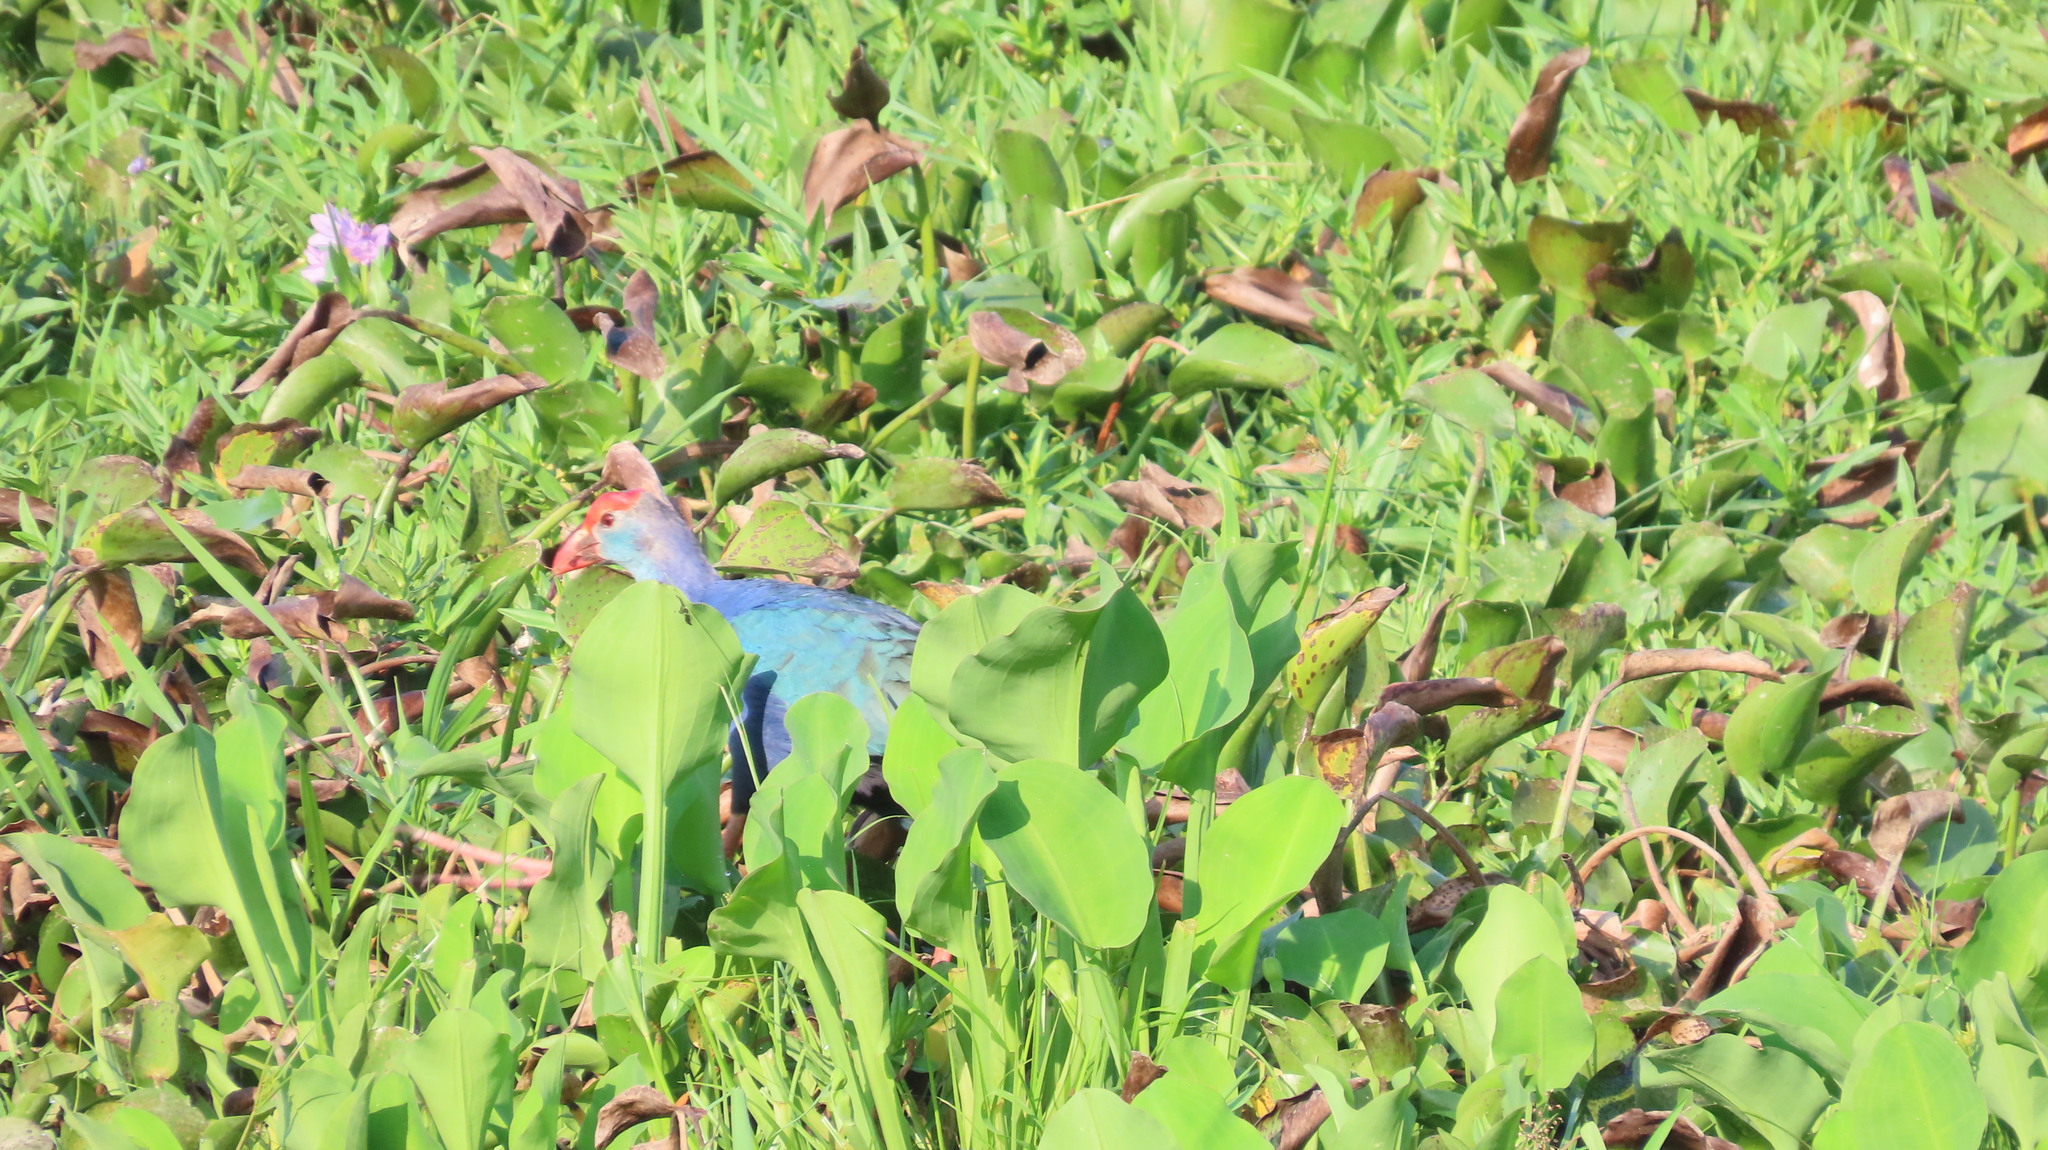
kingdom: Animalia
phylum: Chordata
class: Aves
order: Gruiformes
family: Rallidae
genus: Porphyrio
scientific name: Porphyrio porphyrio
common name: Purple swamphen
